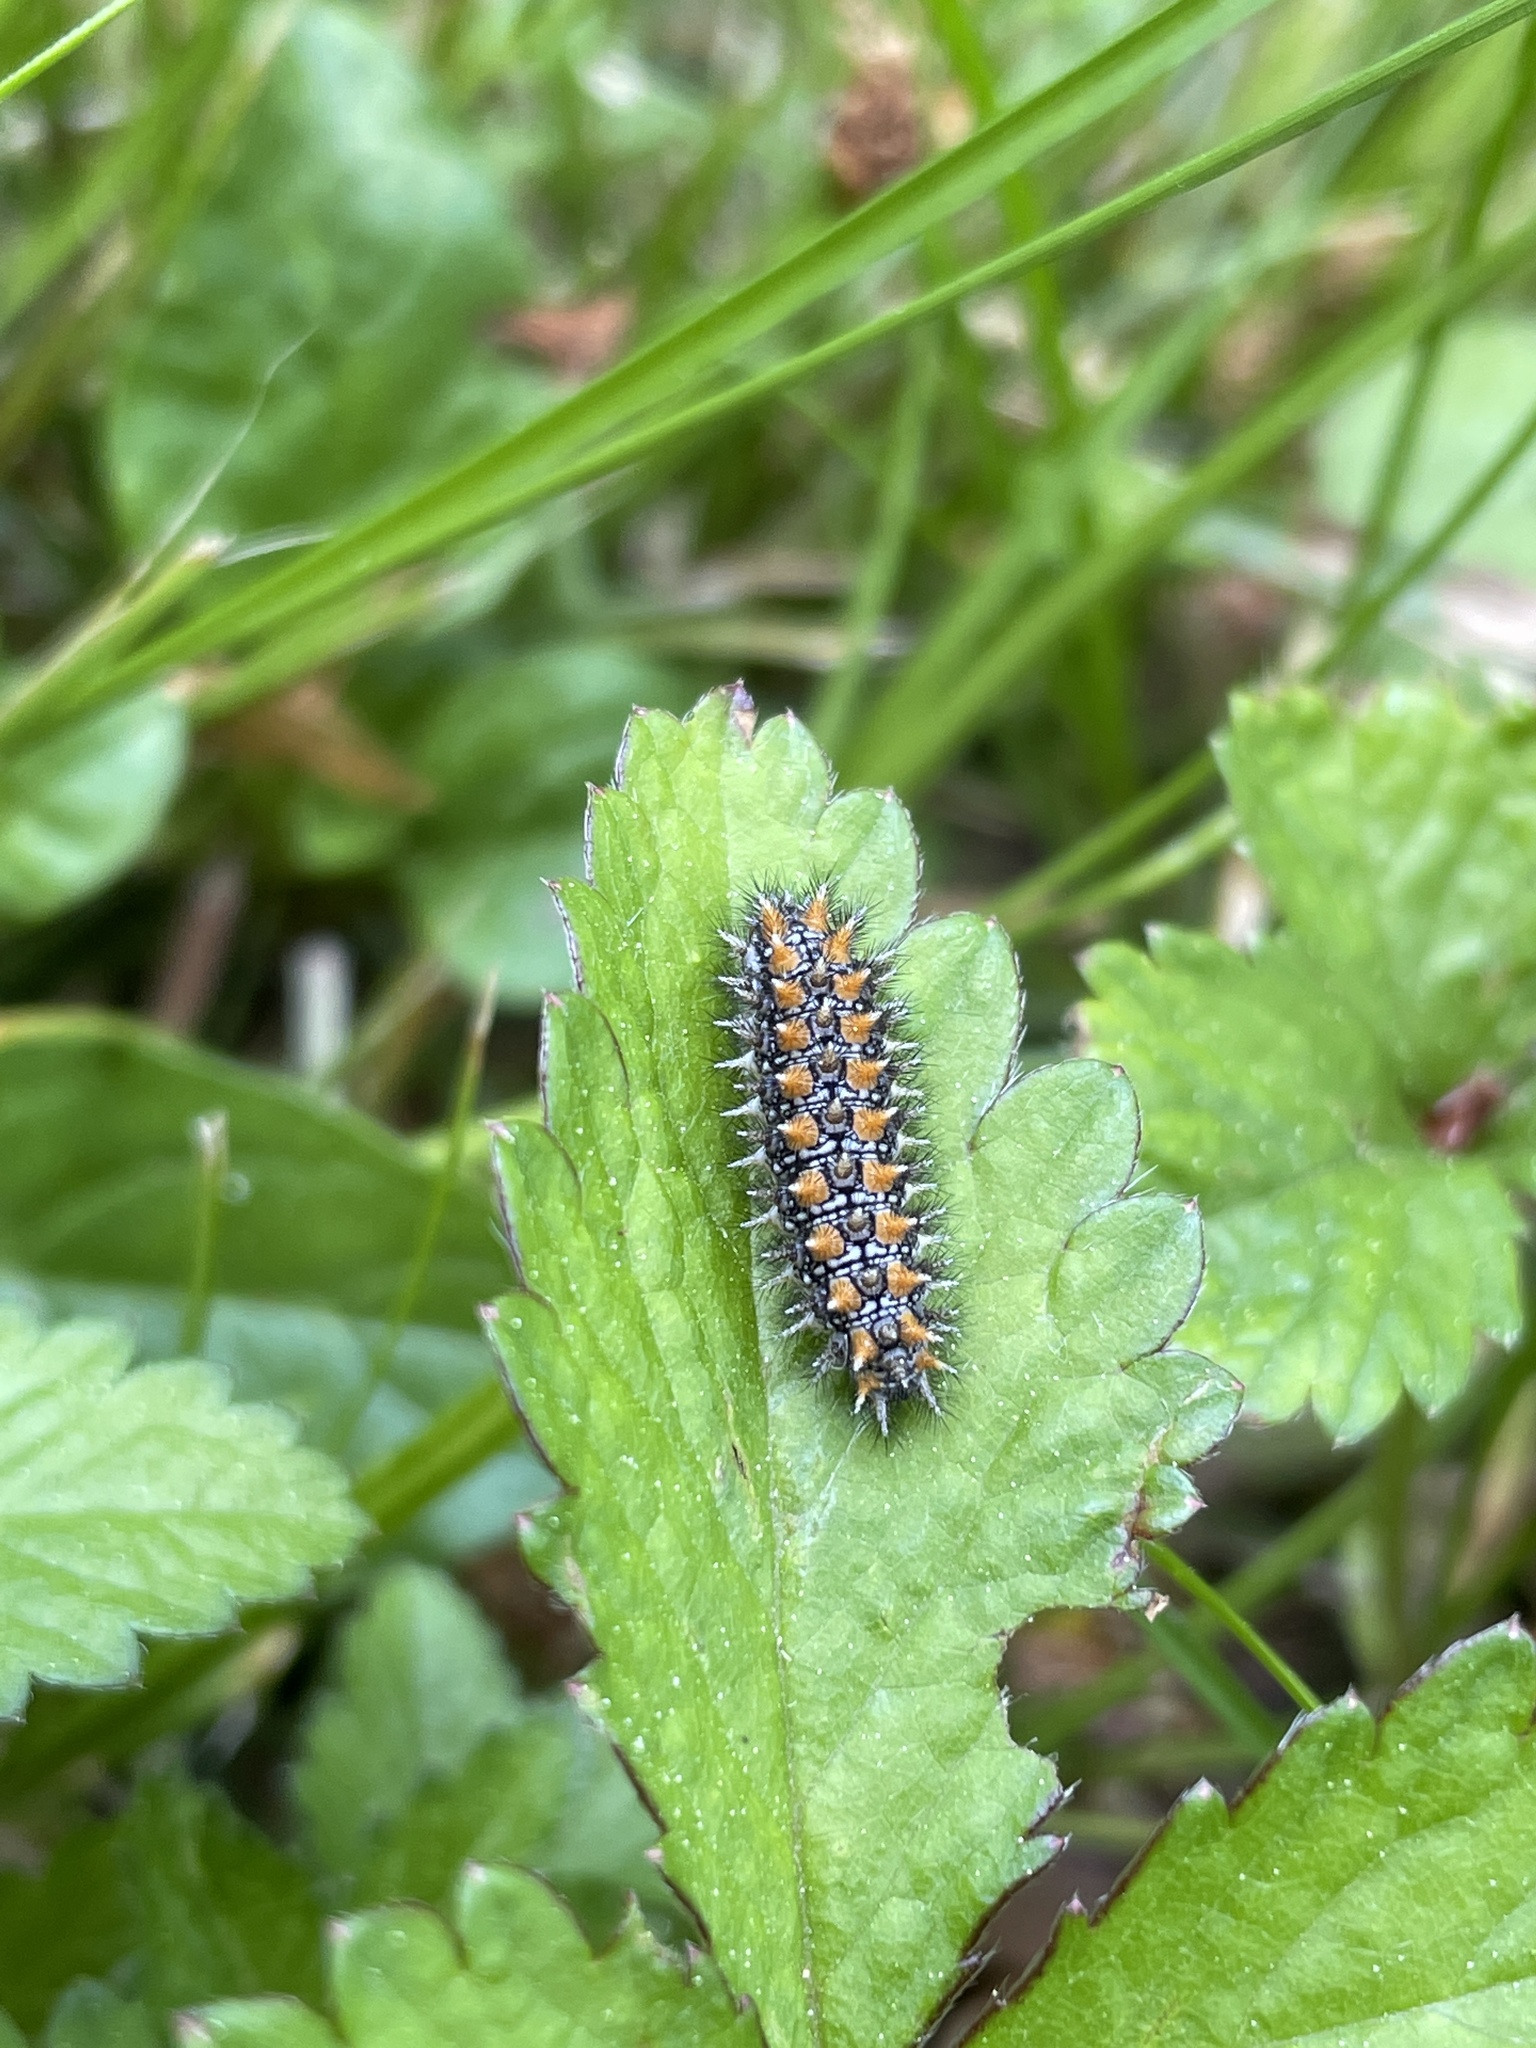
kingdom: Animalia
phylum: Arthropoda
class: Insecta
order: Lepidoptera
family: Nymphalidae
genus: Melitaea
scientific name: Melitaea didyma
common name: Spotted fritillary
